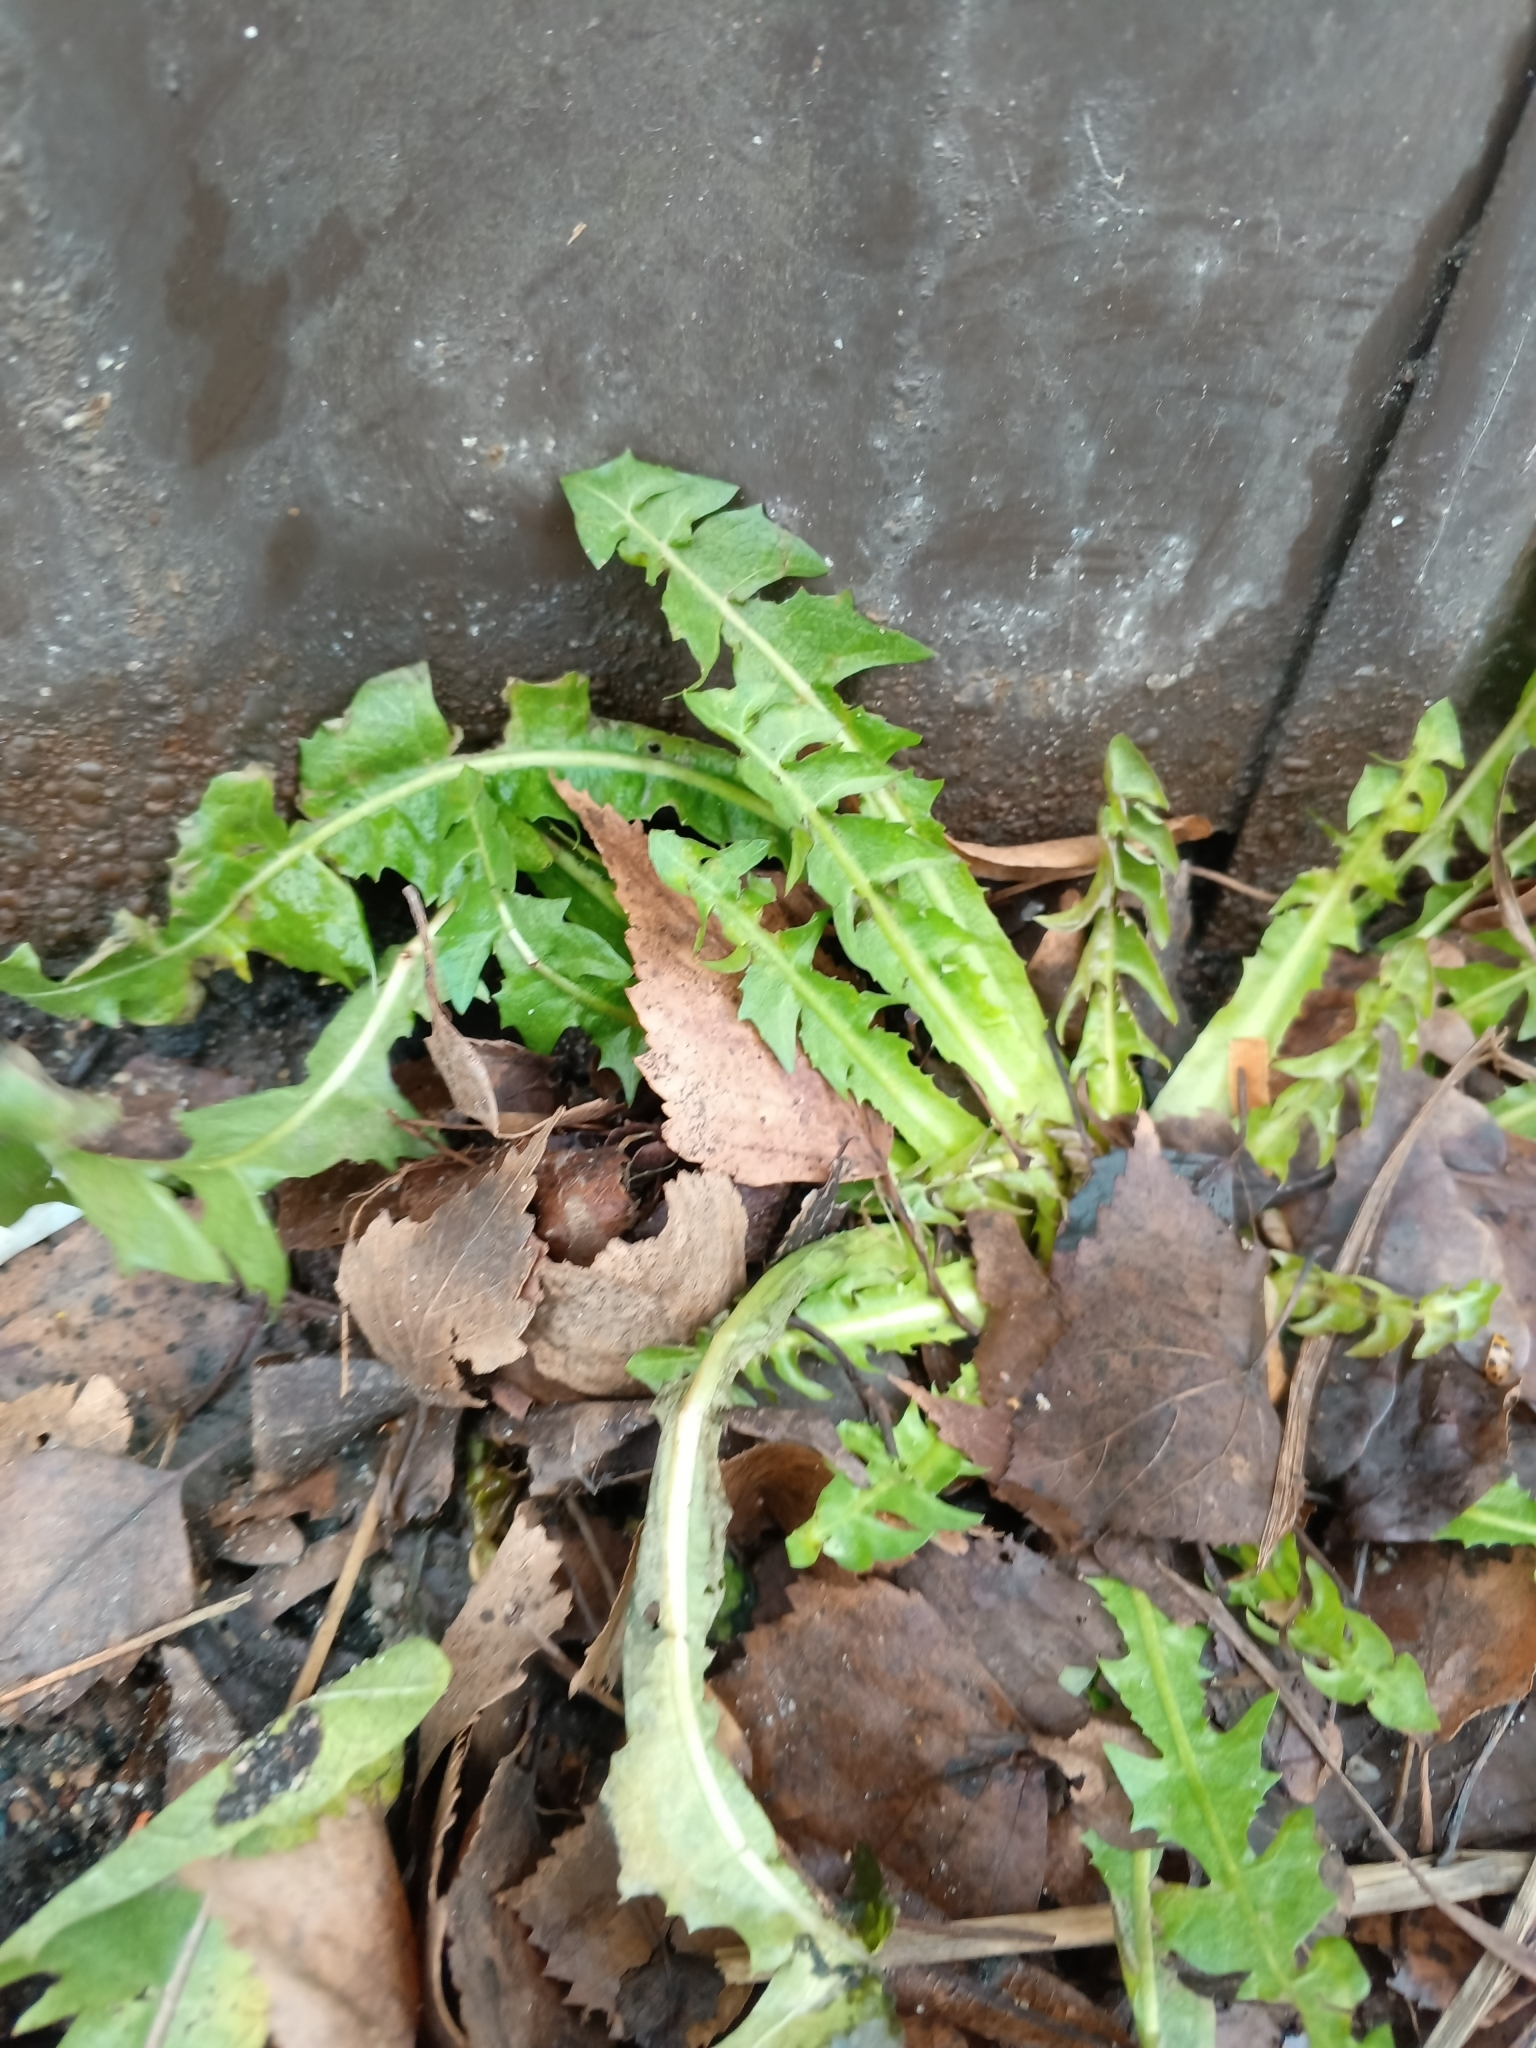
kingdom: Plantae
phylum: Tracheophyta
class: Magnoliopsida
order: Asterales
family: Asteraceae
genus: Taraxacum
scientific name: Taraxacum officinale
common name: Common dandelion
